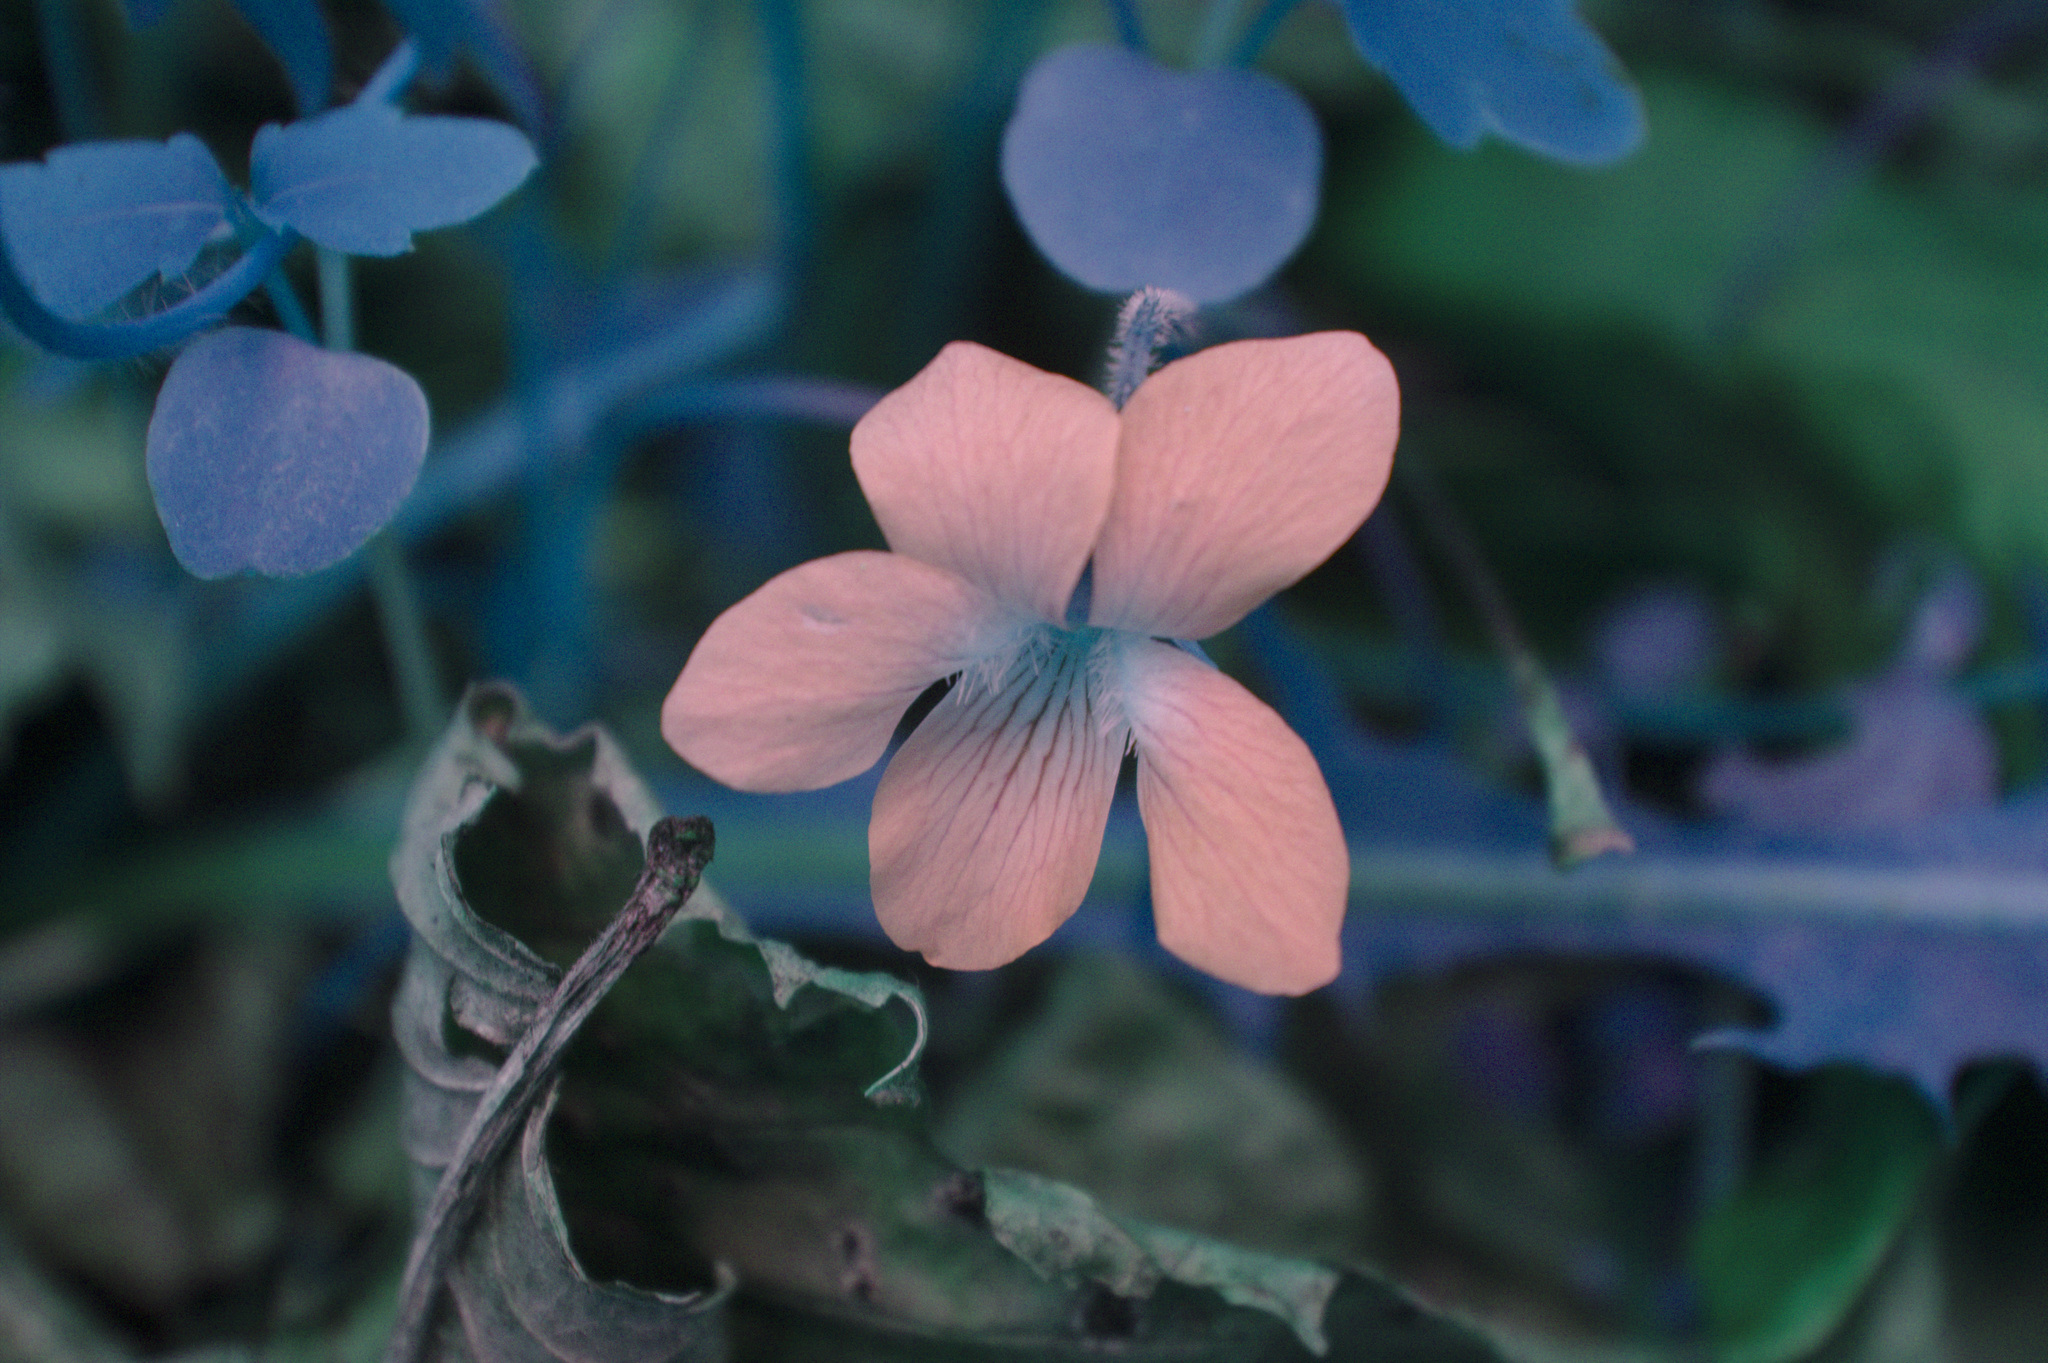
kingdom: Plantae
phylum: Tracheophyta
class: Magnoliopsida
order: Malpighiales
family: Violaceae
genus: Viola
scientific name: Viola sororia
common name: Dooryard violet
